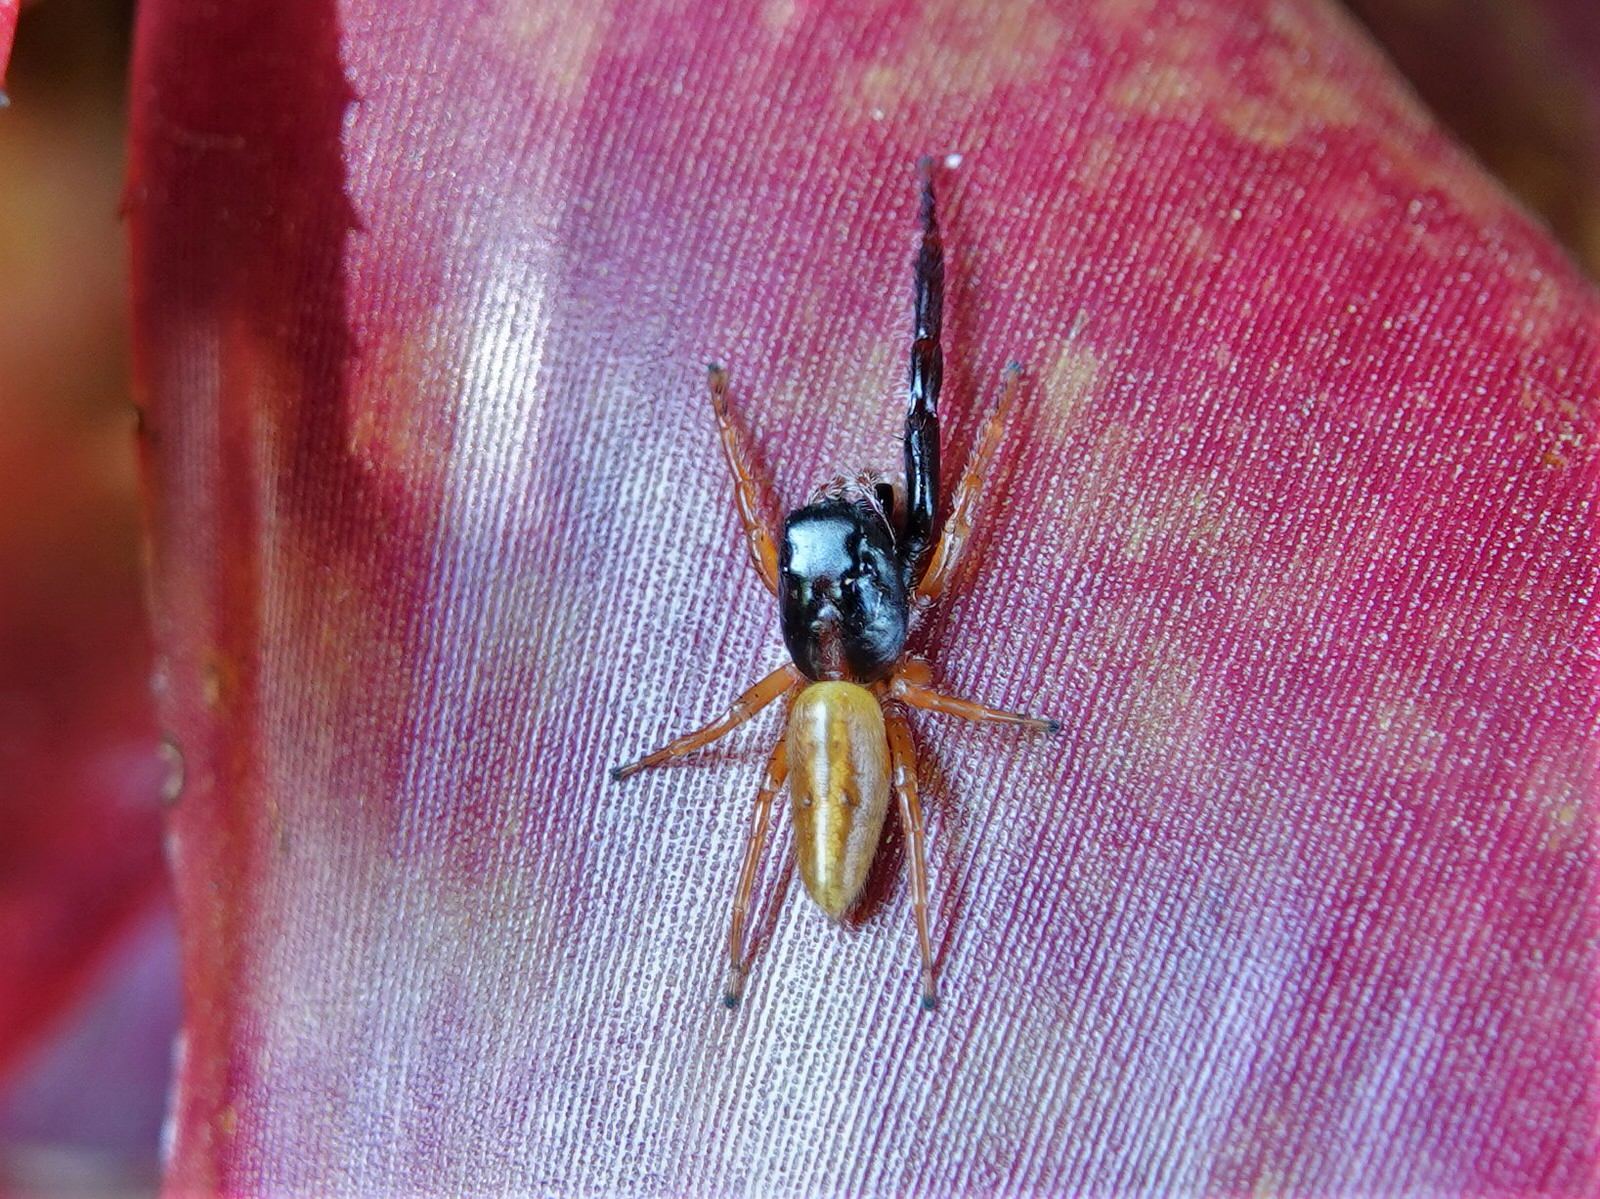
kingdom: Animalia
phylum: Arthropoda
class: Arachnida
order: Araneae
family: Salticidae
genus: Trite
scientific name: Trite planiceps
